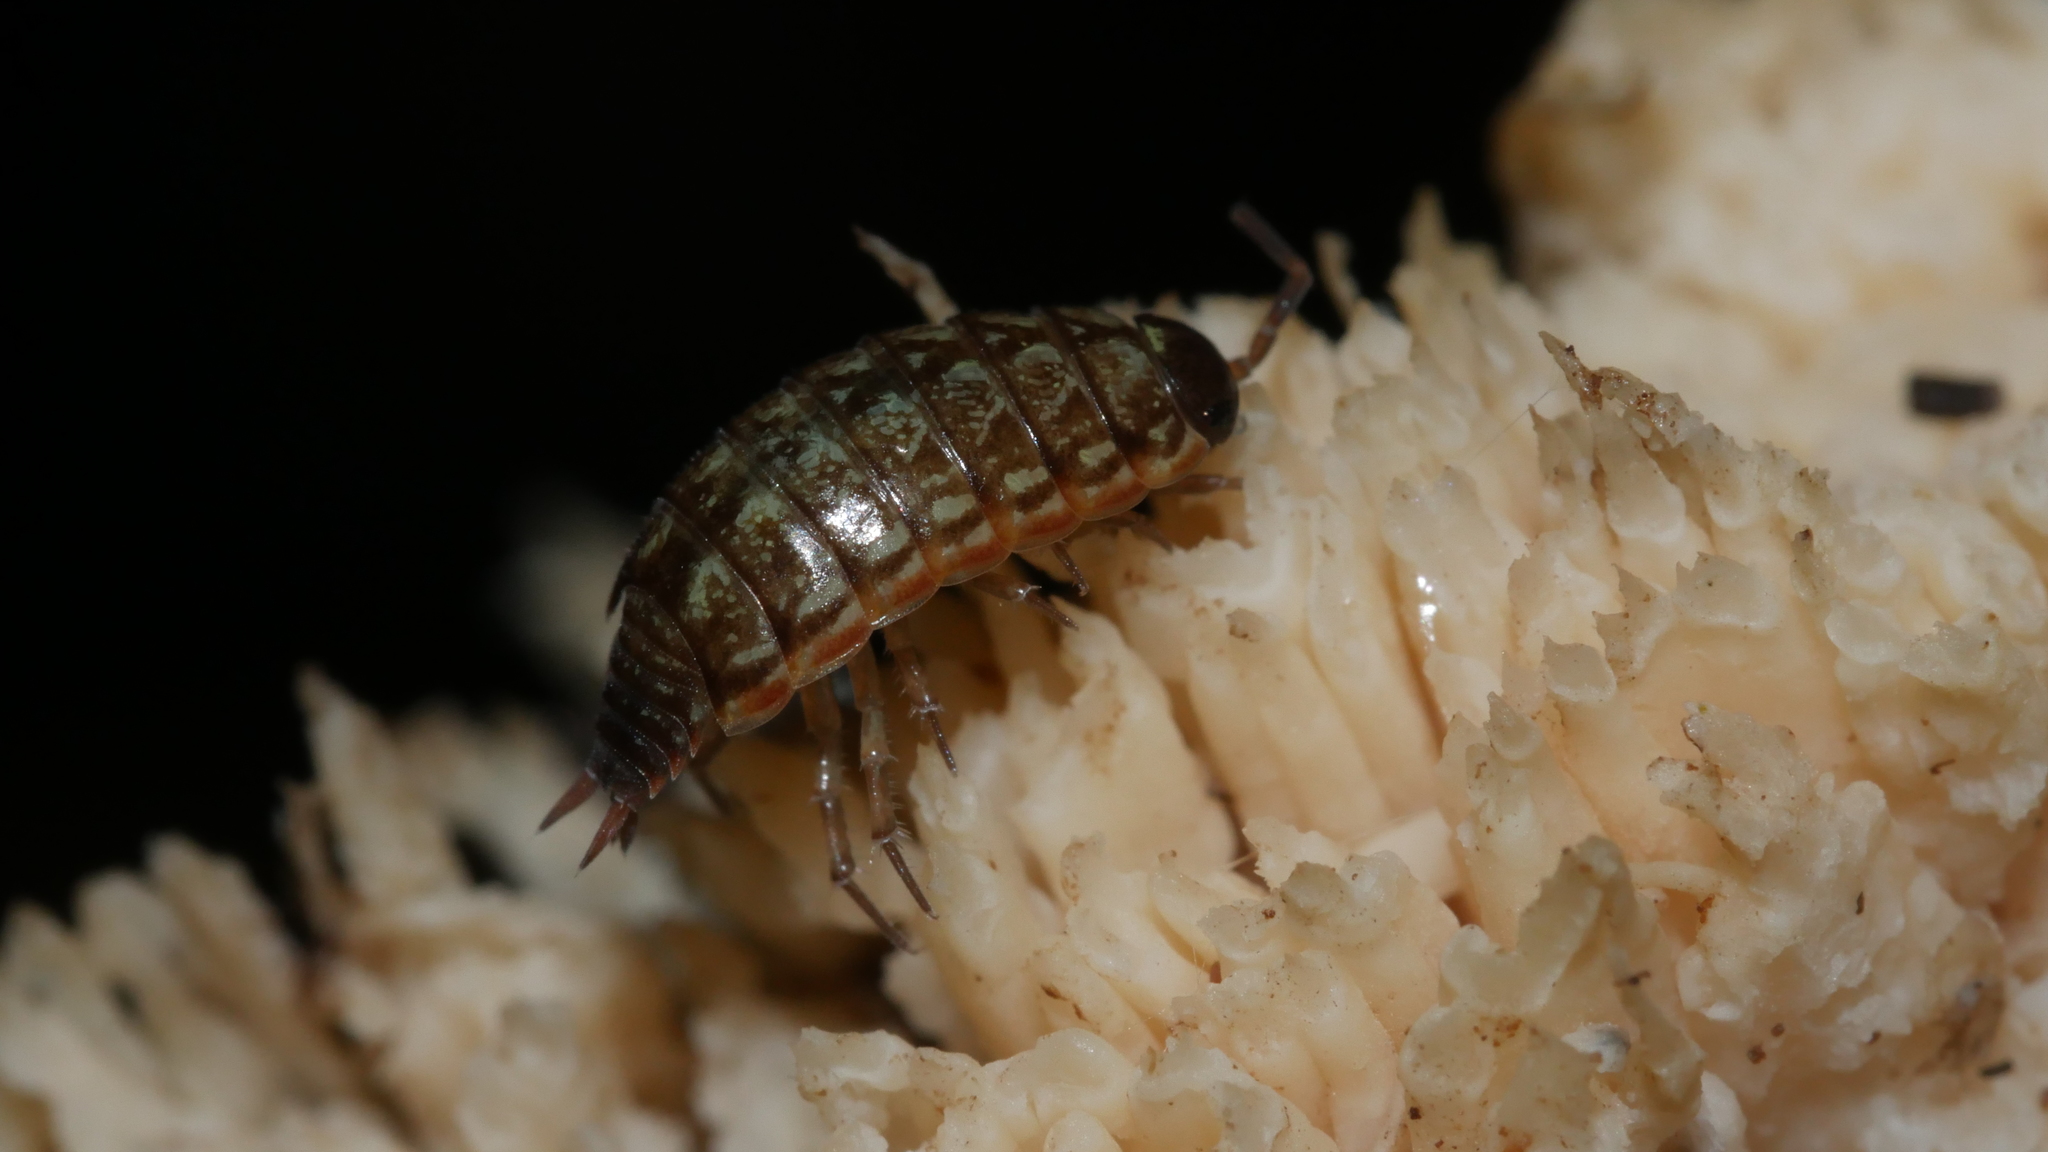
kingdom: Animalia
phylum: Arthropoda
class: Malacostraca
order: Isopoda
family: Philosciidae
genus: Philoscia
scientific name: Philoscia muscorum
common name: Common striped woodlouse
